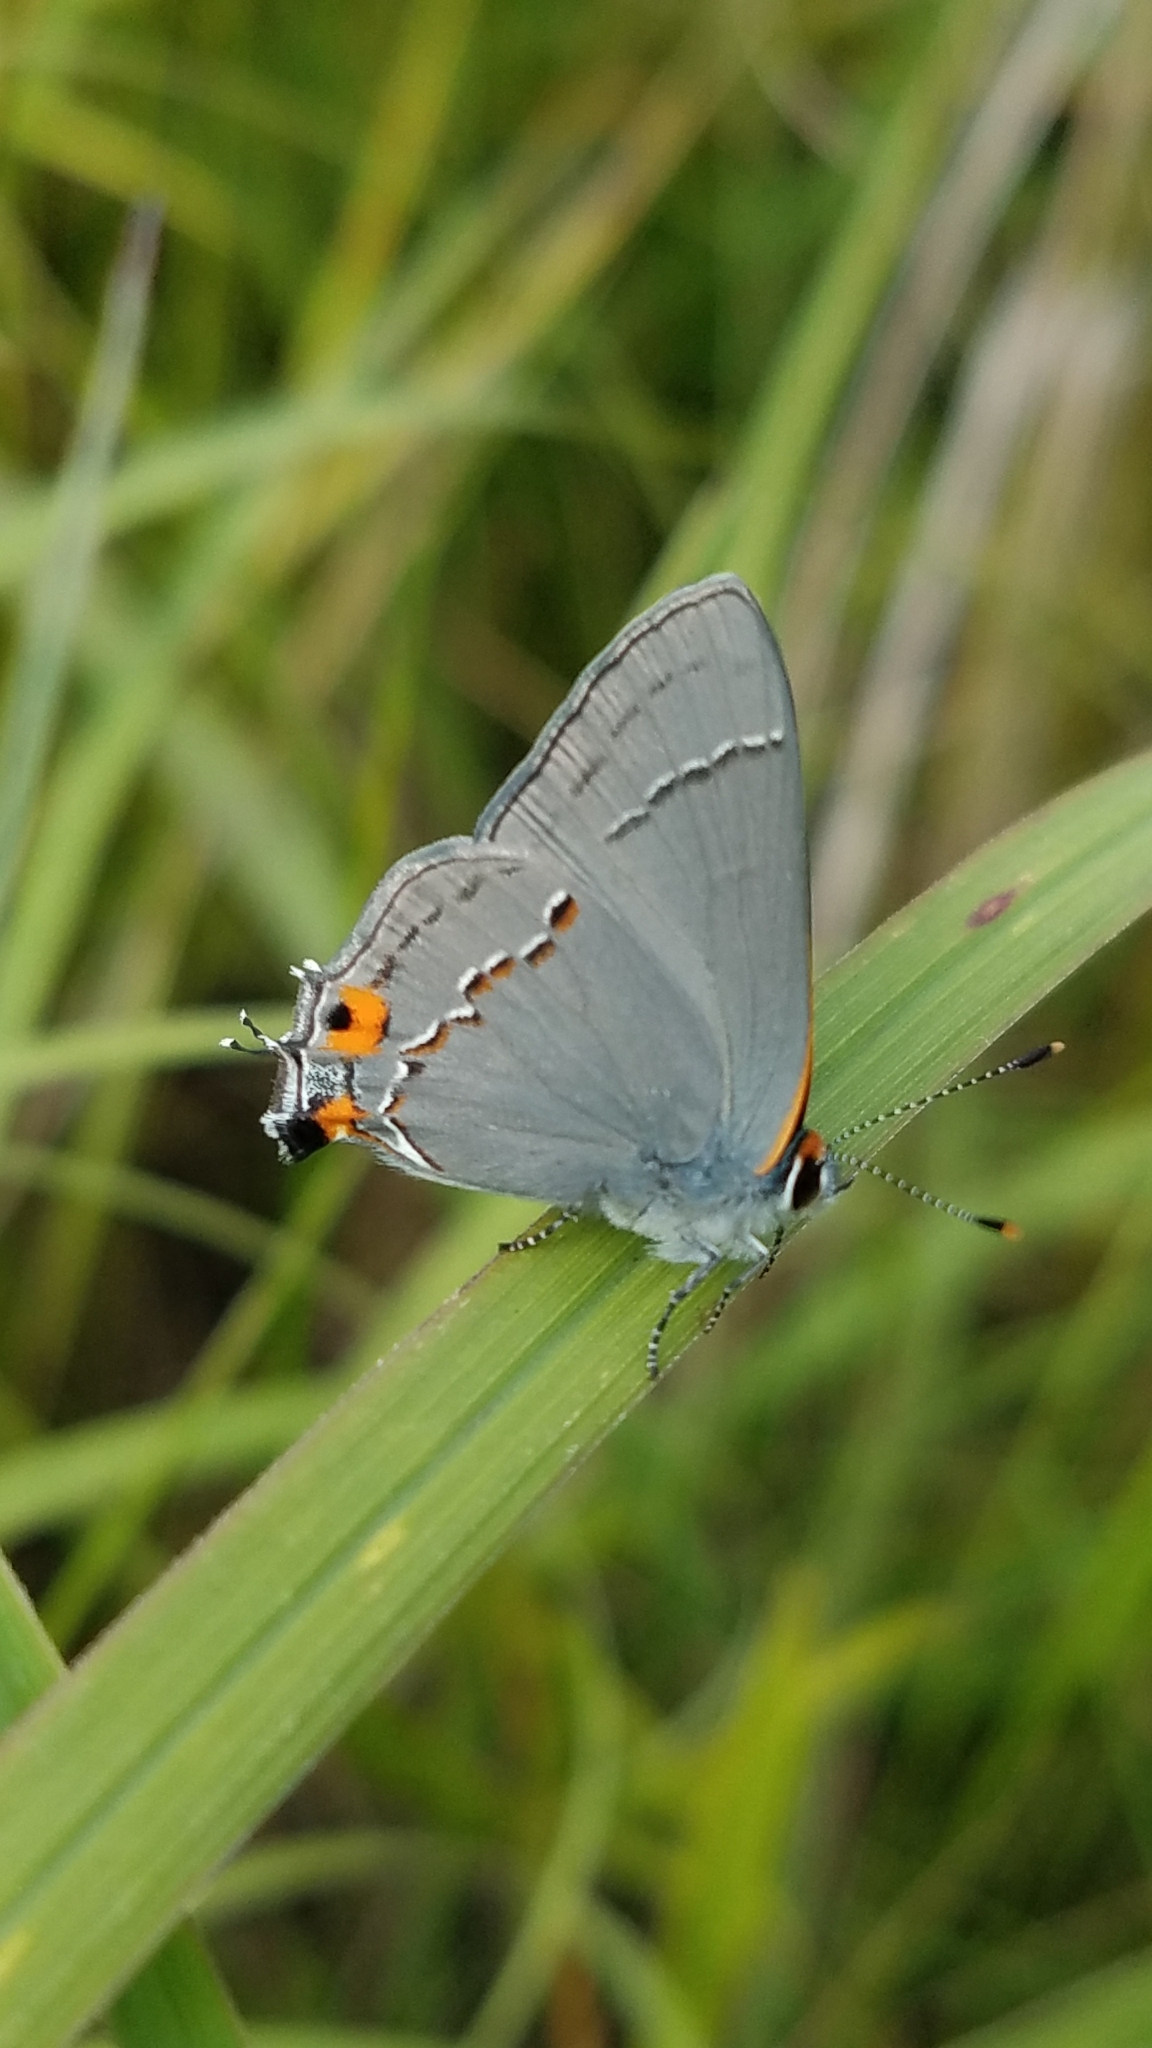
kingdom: Animalia
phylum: Arthropoda
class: Insecta
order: Lepidoptera
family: Lycaenidae
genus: Strymon
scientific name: Strymon melinus
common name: Gray hairstreak
